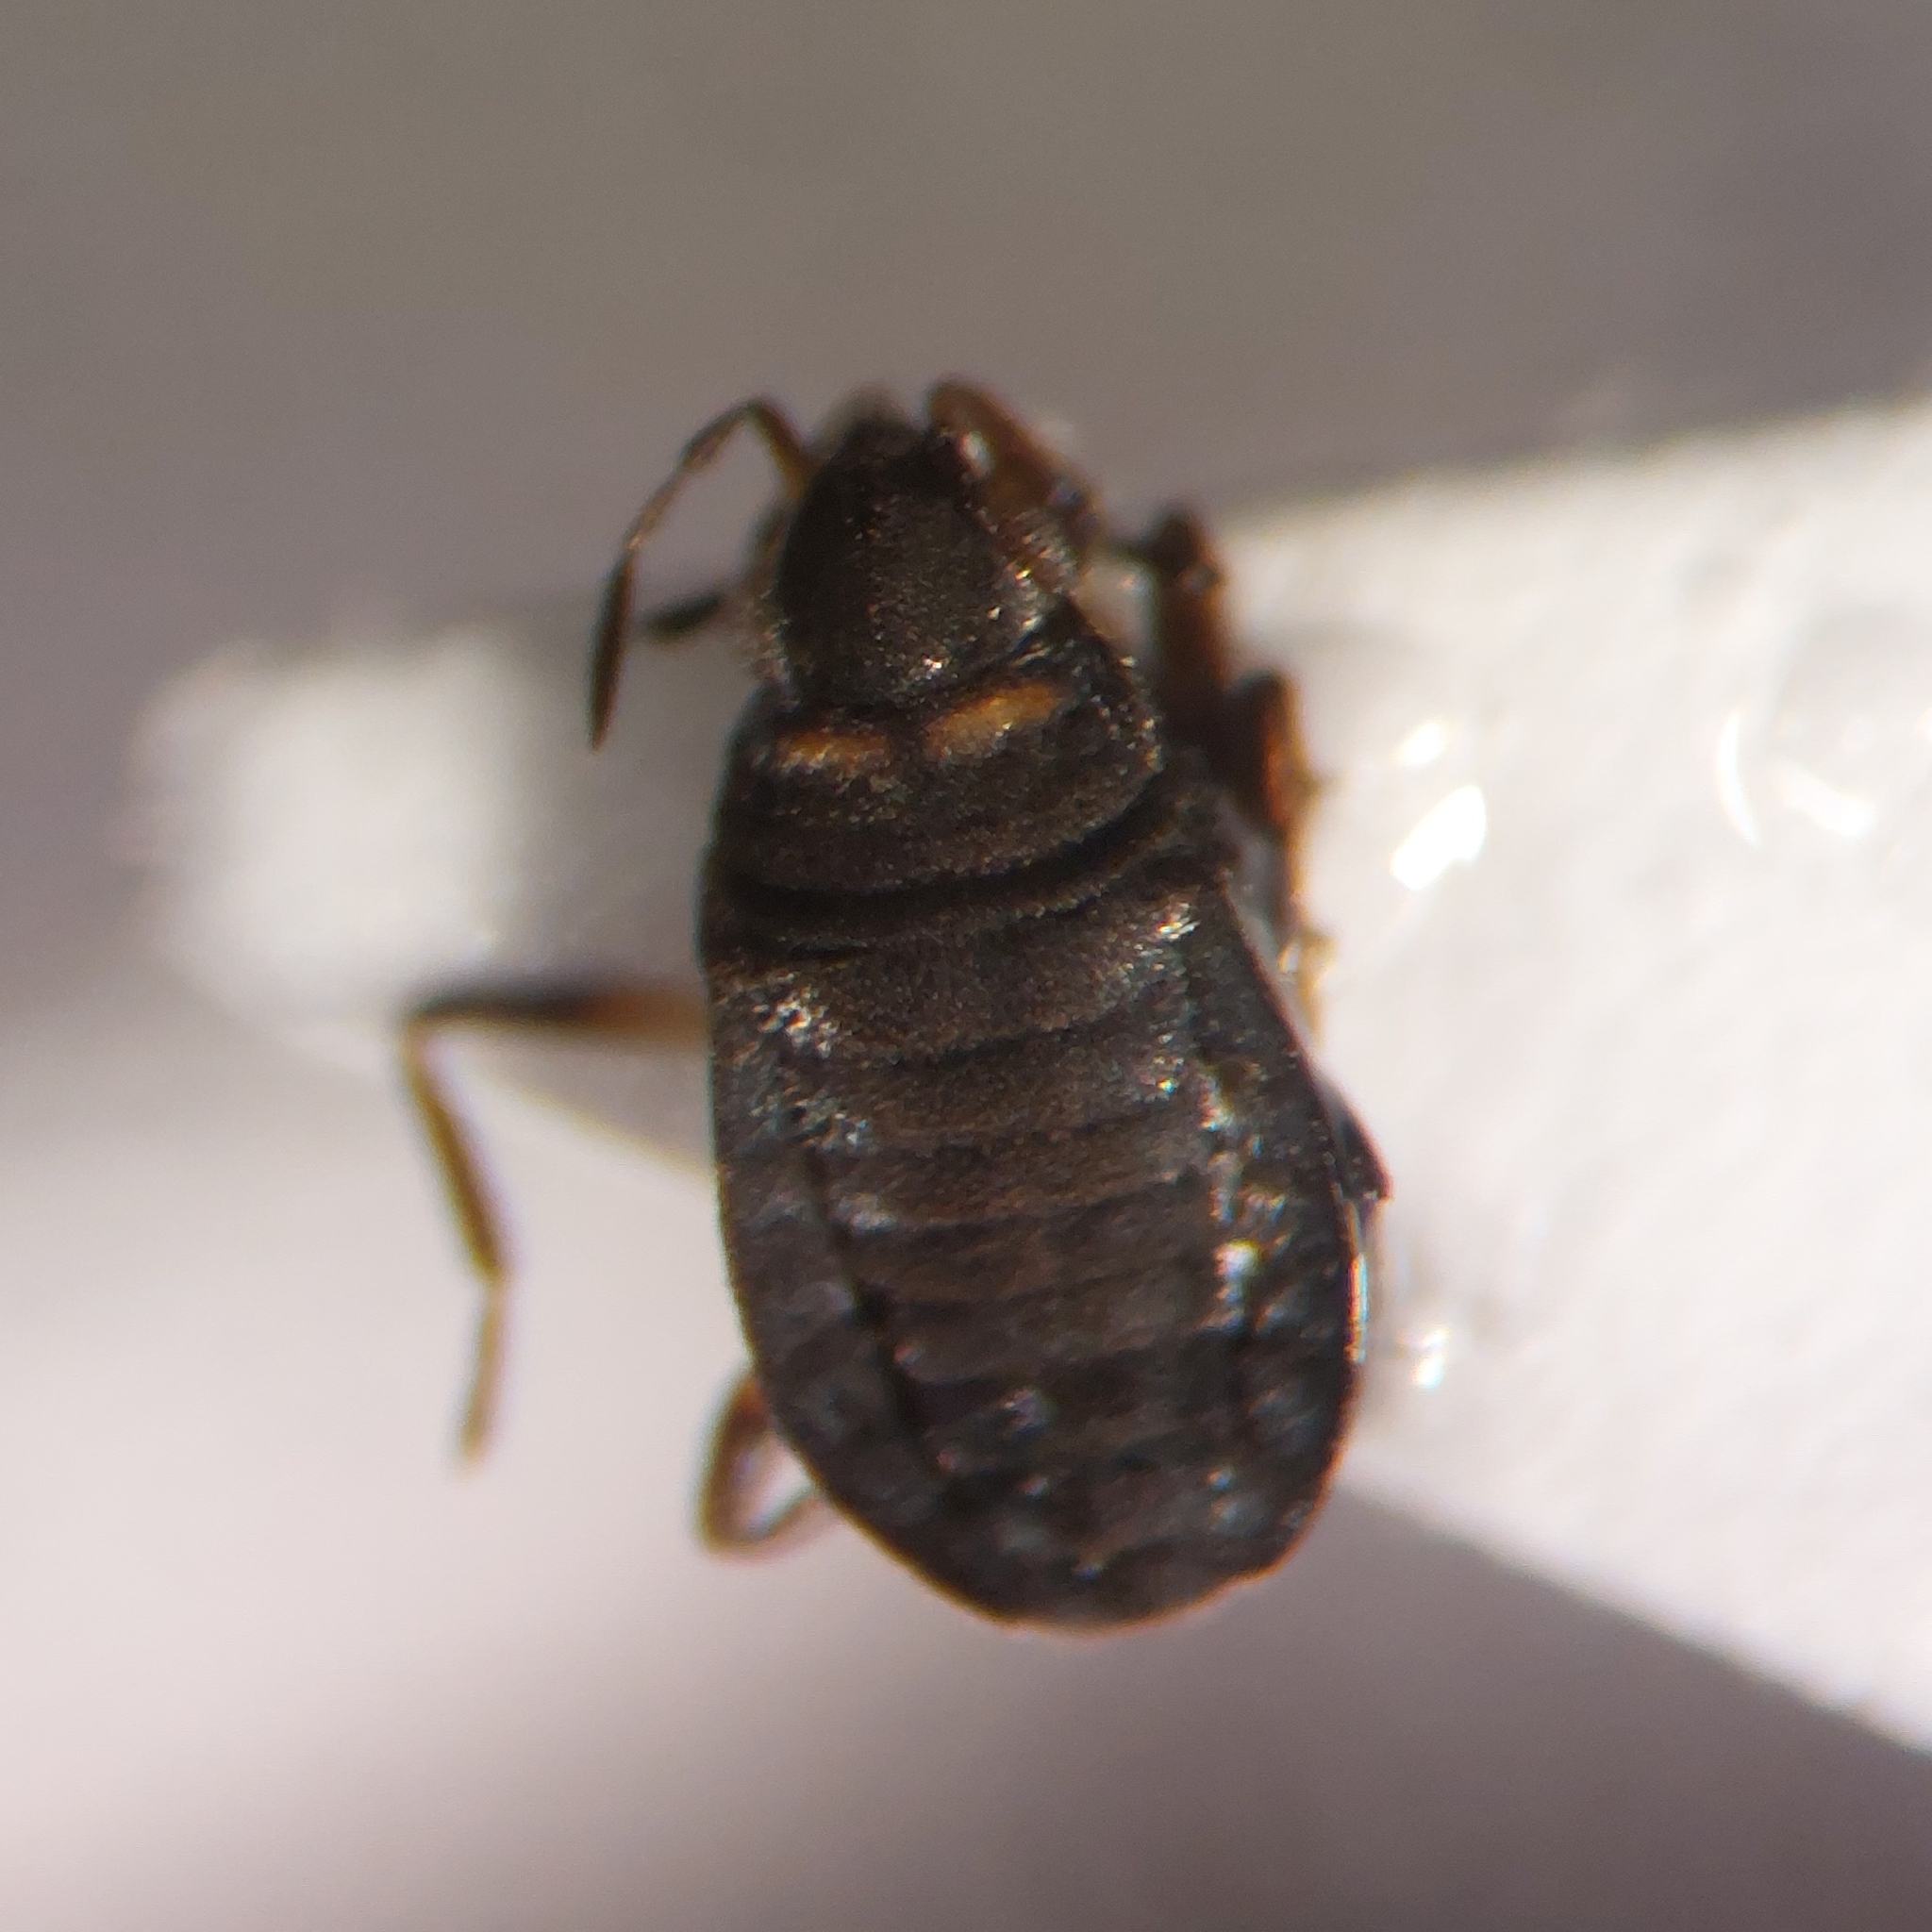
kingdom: Animalia
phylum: Arthropoda
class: Insecta
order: Hemiptera
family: Veliidae
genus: Microvelia
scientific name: Microvelia reticulata
